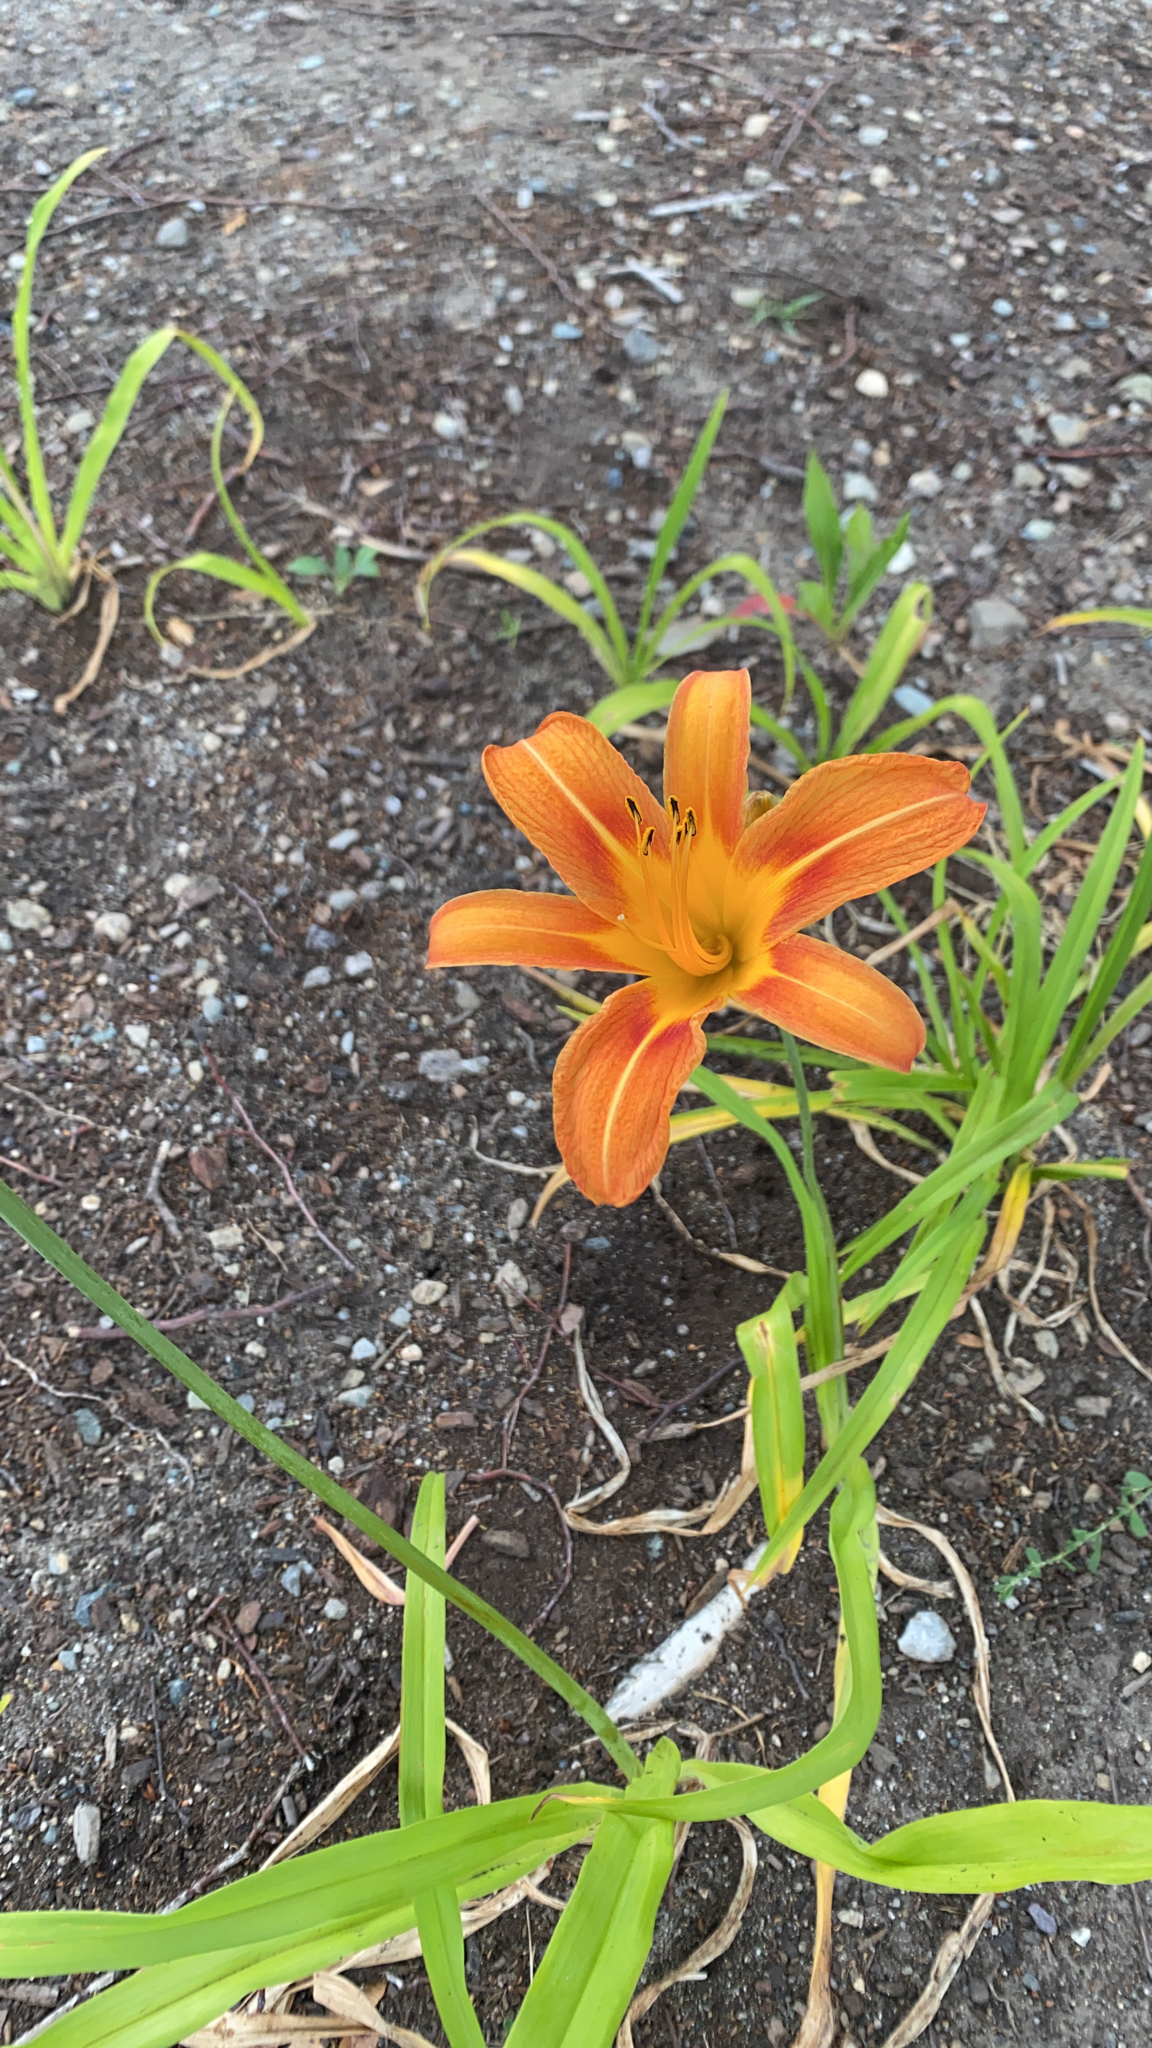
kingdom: Plantae
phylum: Tracheophyta
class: Liliopsida
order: Asparagales
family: Asphodelaceae
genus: Hemerocallis
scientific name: Hemerocallis fulva
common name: Orange day-lily
